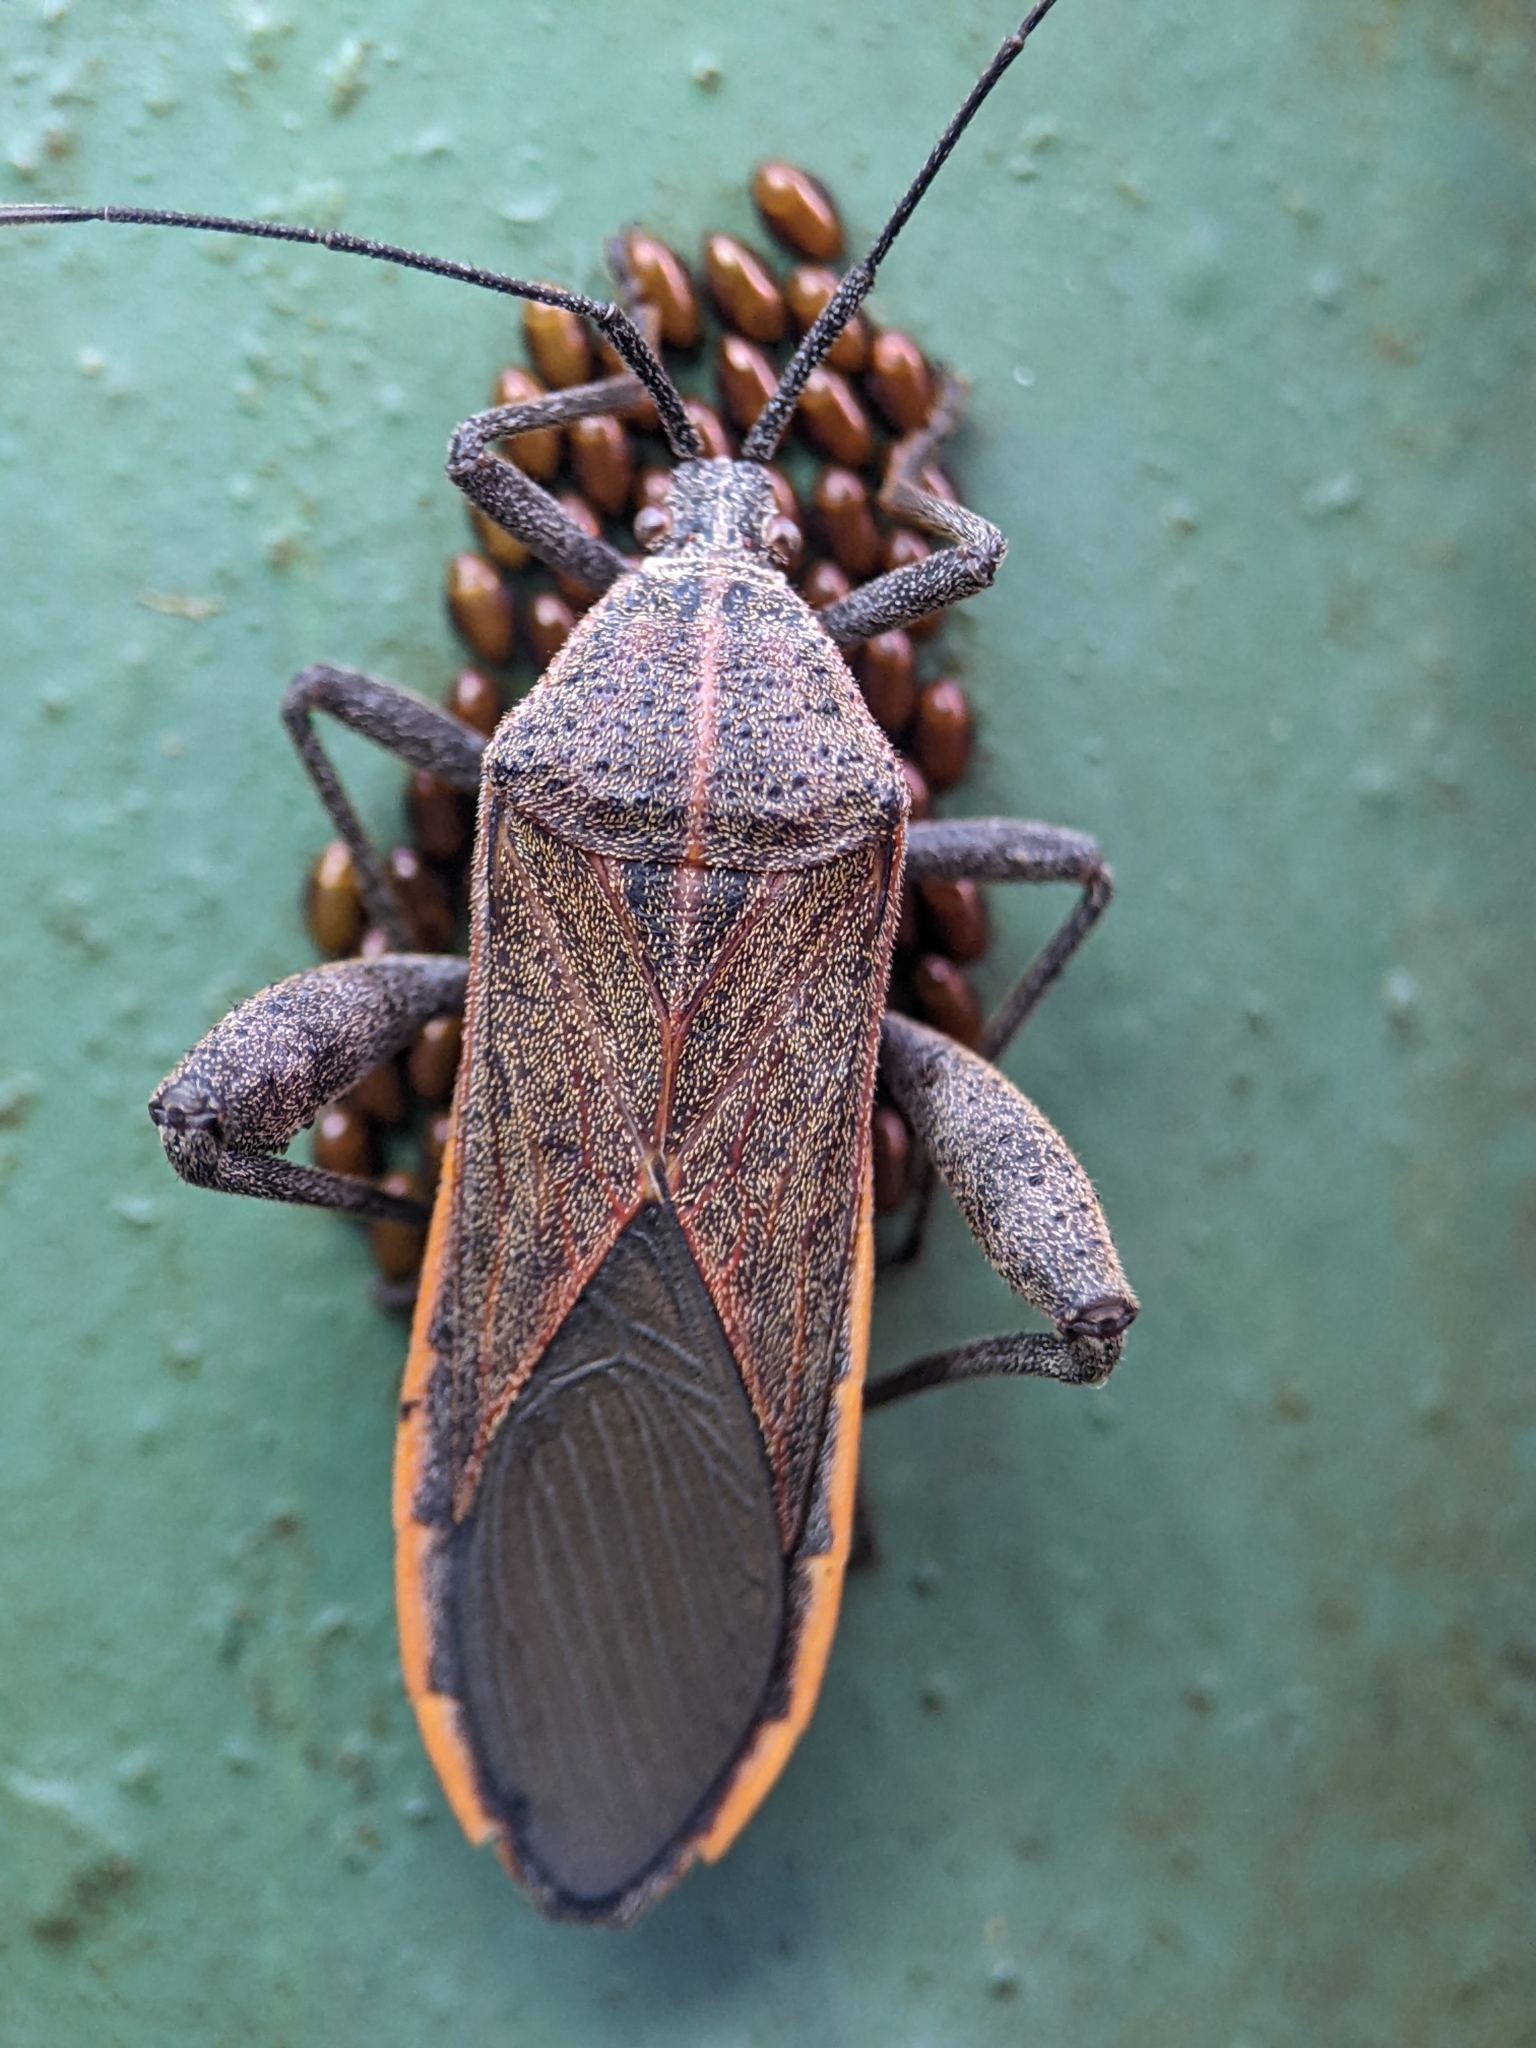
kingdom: Animalia
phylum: Arthropoda
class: Insecta
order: Hemiptera
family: Coreidae
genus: Physomerus
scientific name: Physomerus grossipes
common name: Squash bug
